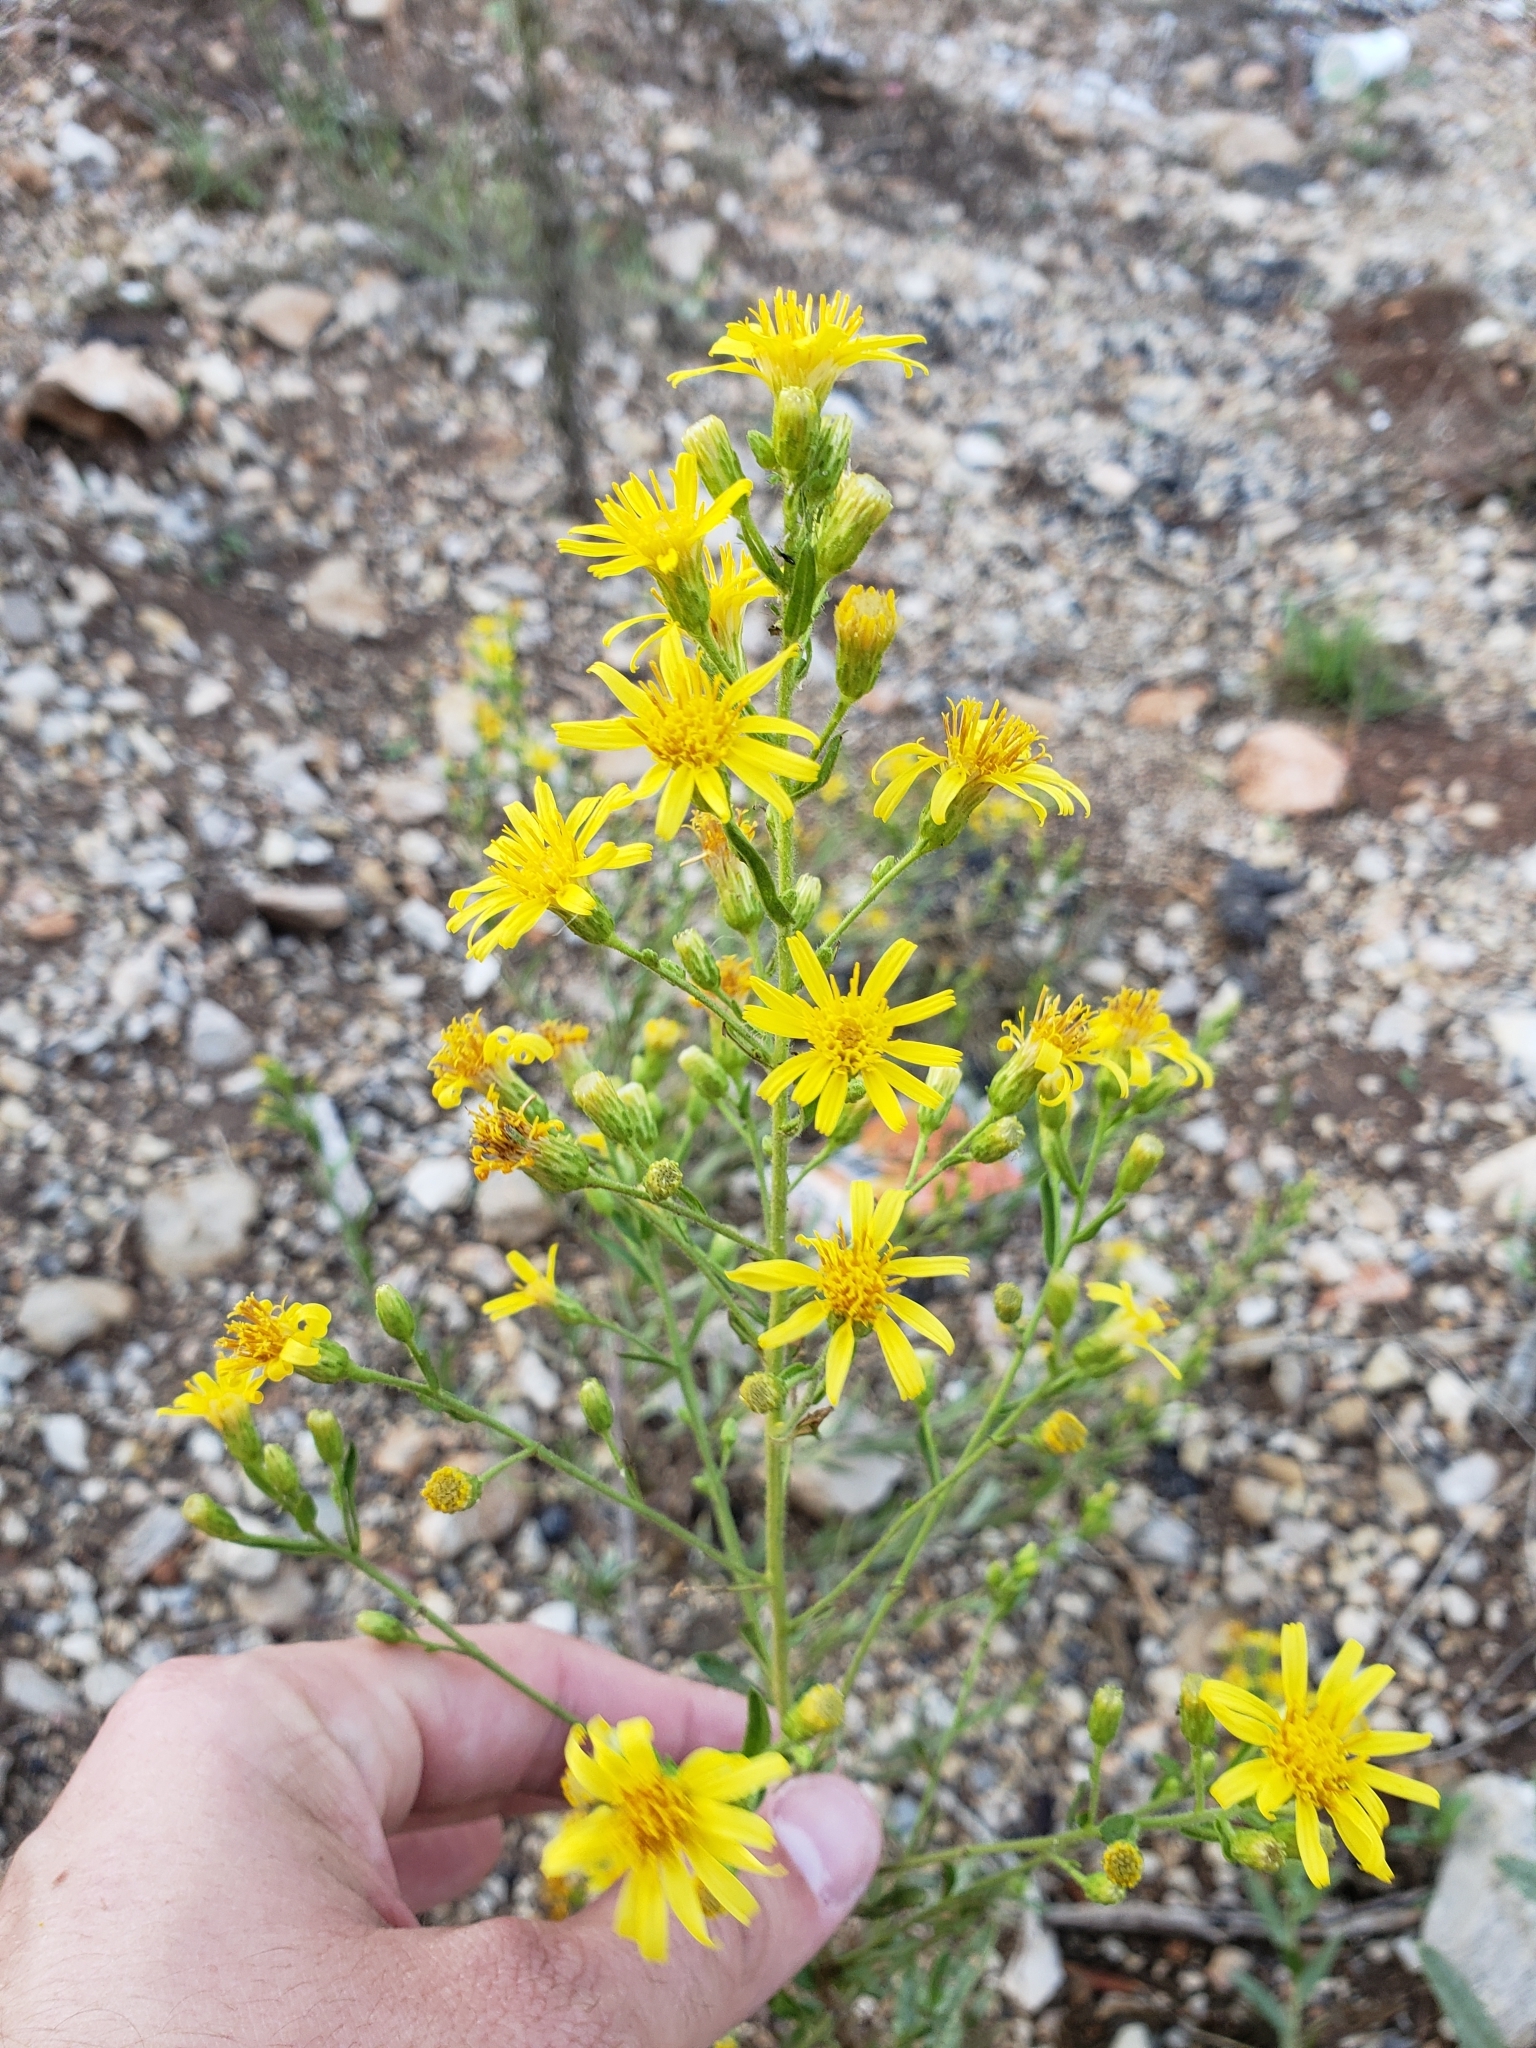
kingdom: Plantae
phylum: Tracheophyta
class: Magnoliopsida
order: Asterales
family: Asteraceae
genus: Dittrichia
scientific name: Dittrichia viscosa
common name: Woody fleabane
